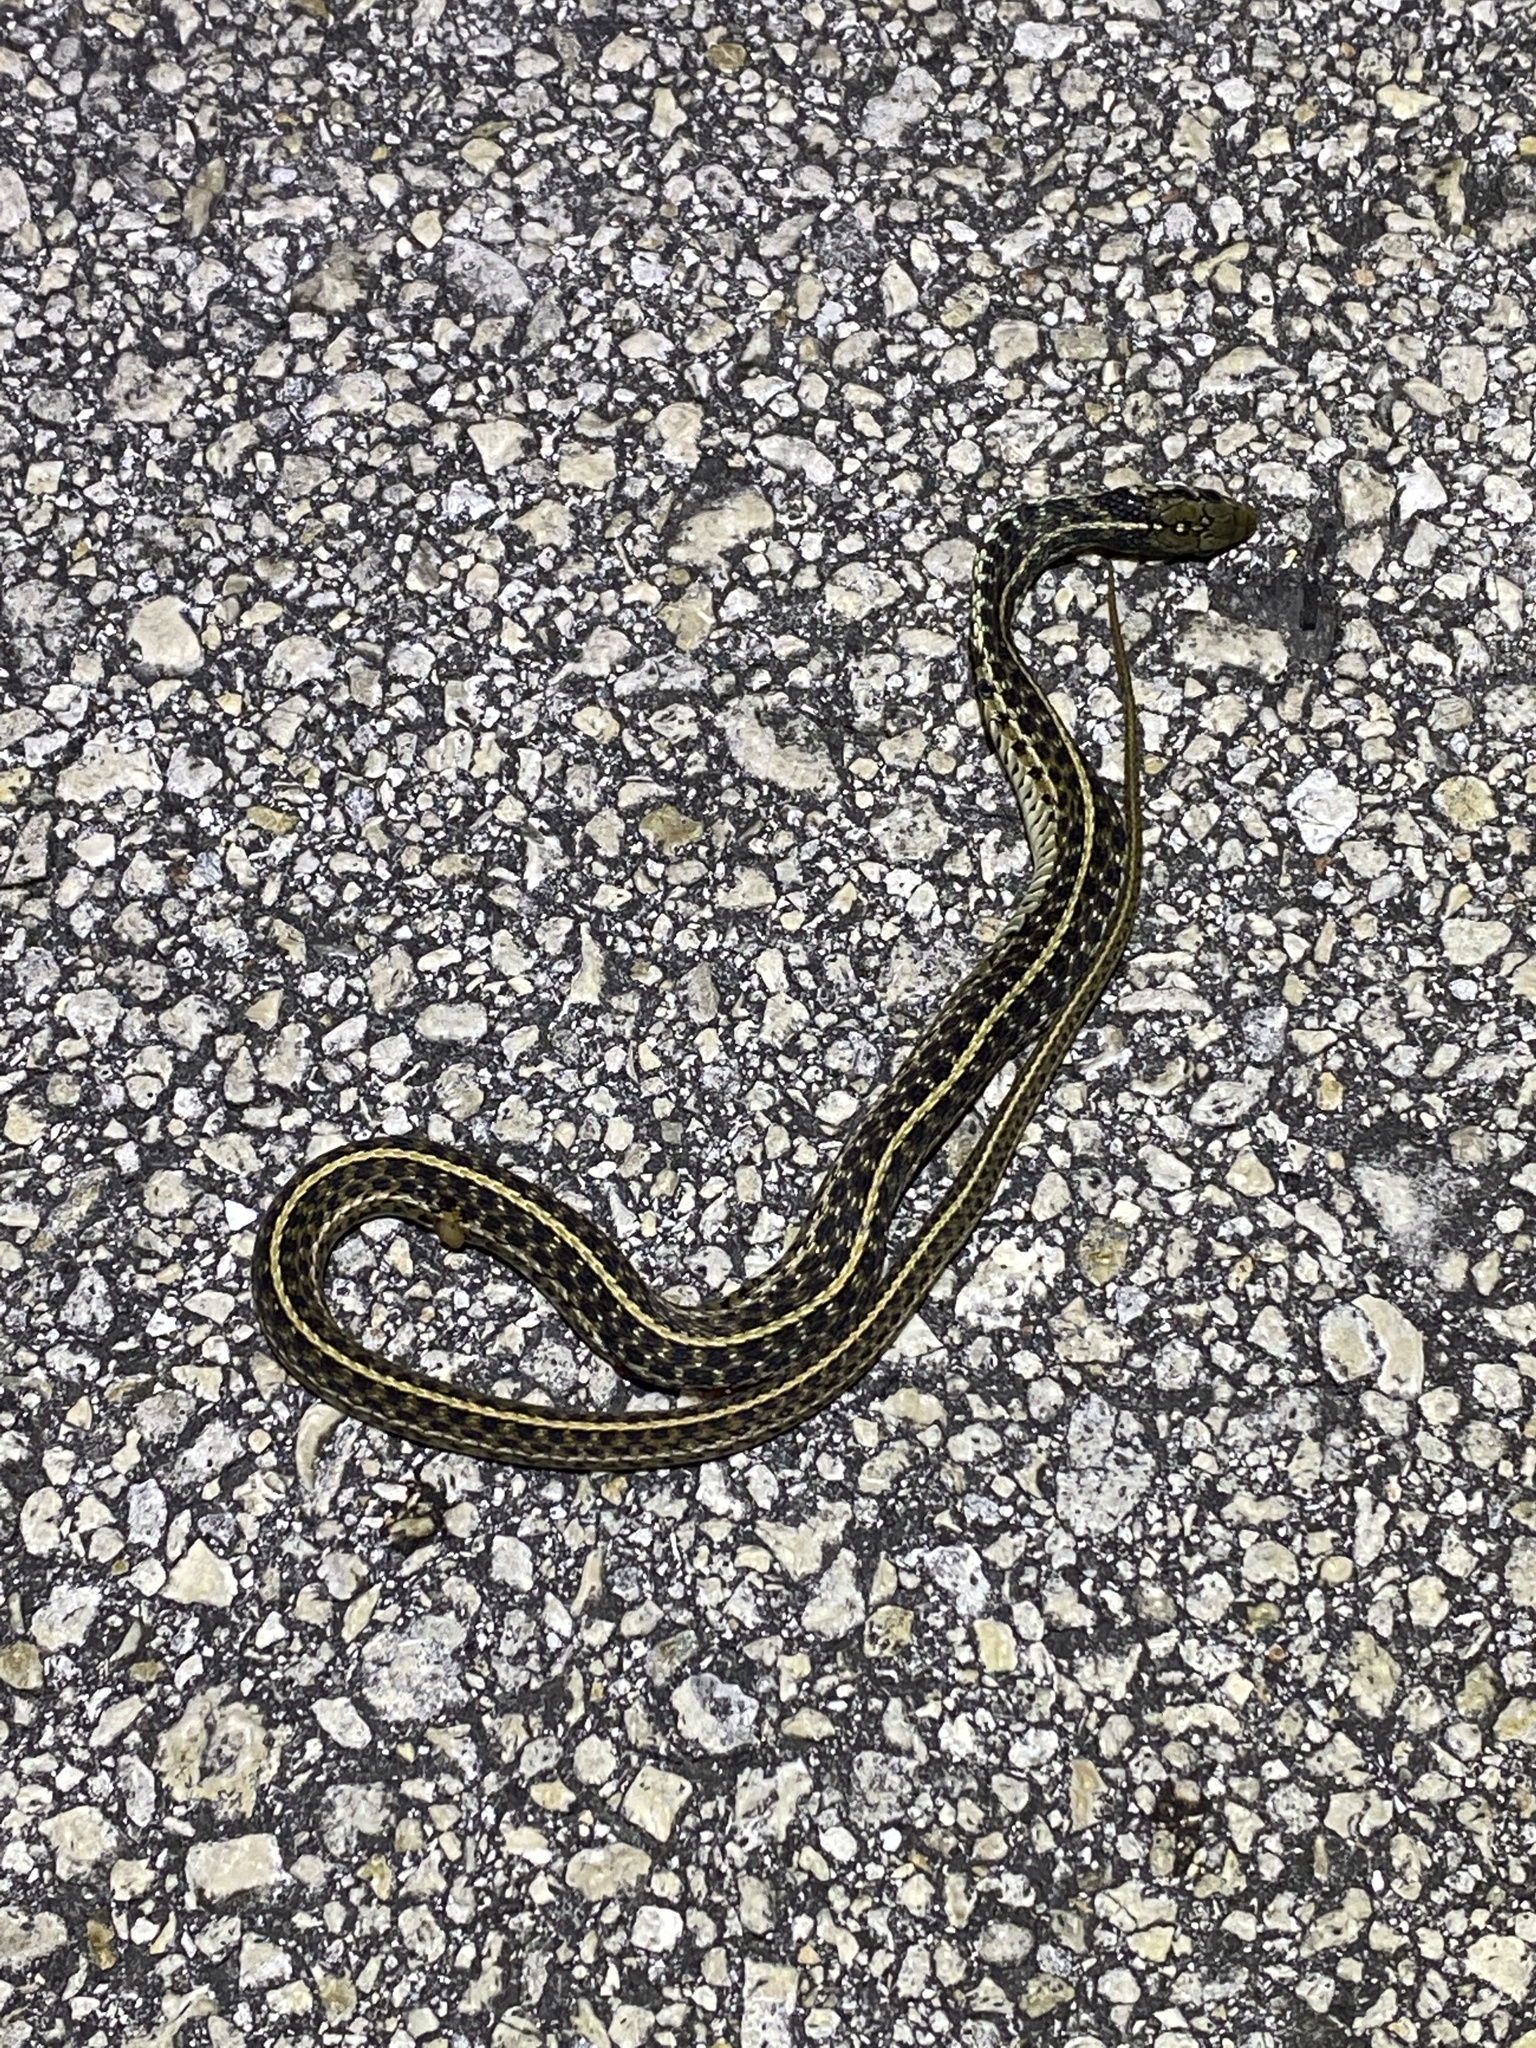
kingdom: Animalia
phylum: Chordata
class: Squamata
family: Colubridae
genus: Thamnophis
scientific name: Thamnophis sirtalis
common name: Common garter snake
